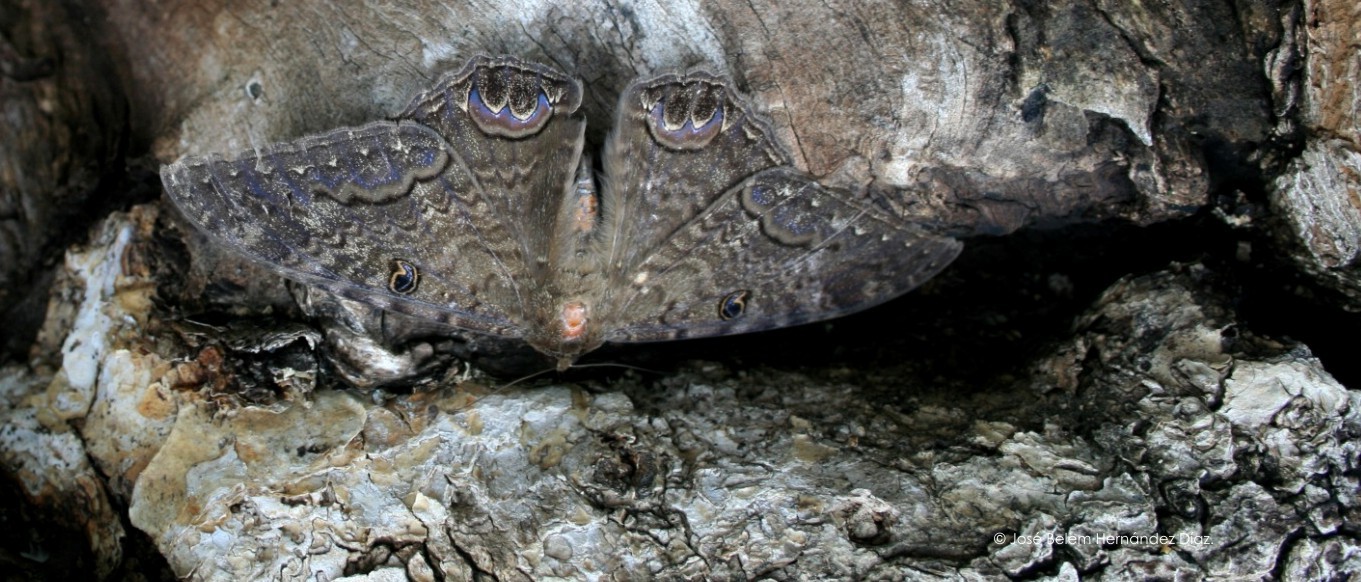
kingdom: Animalia
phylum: Arthropoda
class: Insecta
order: Lepidoptera
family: Erebidae
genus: Ascalapha
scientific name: Ascalapha odorata
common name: Black witch
